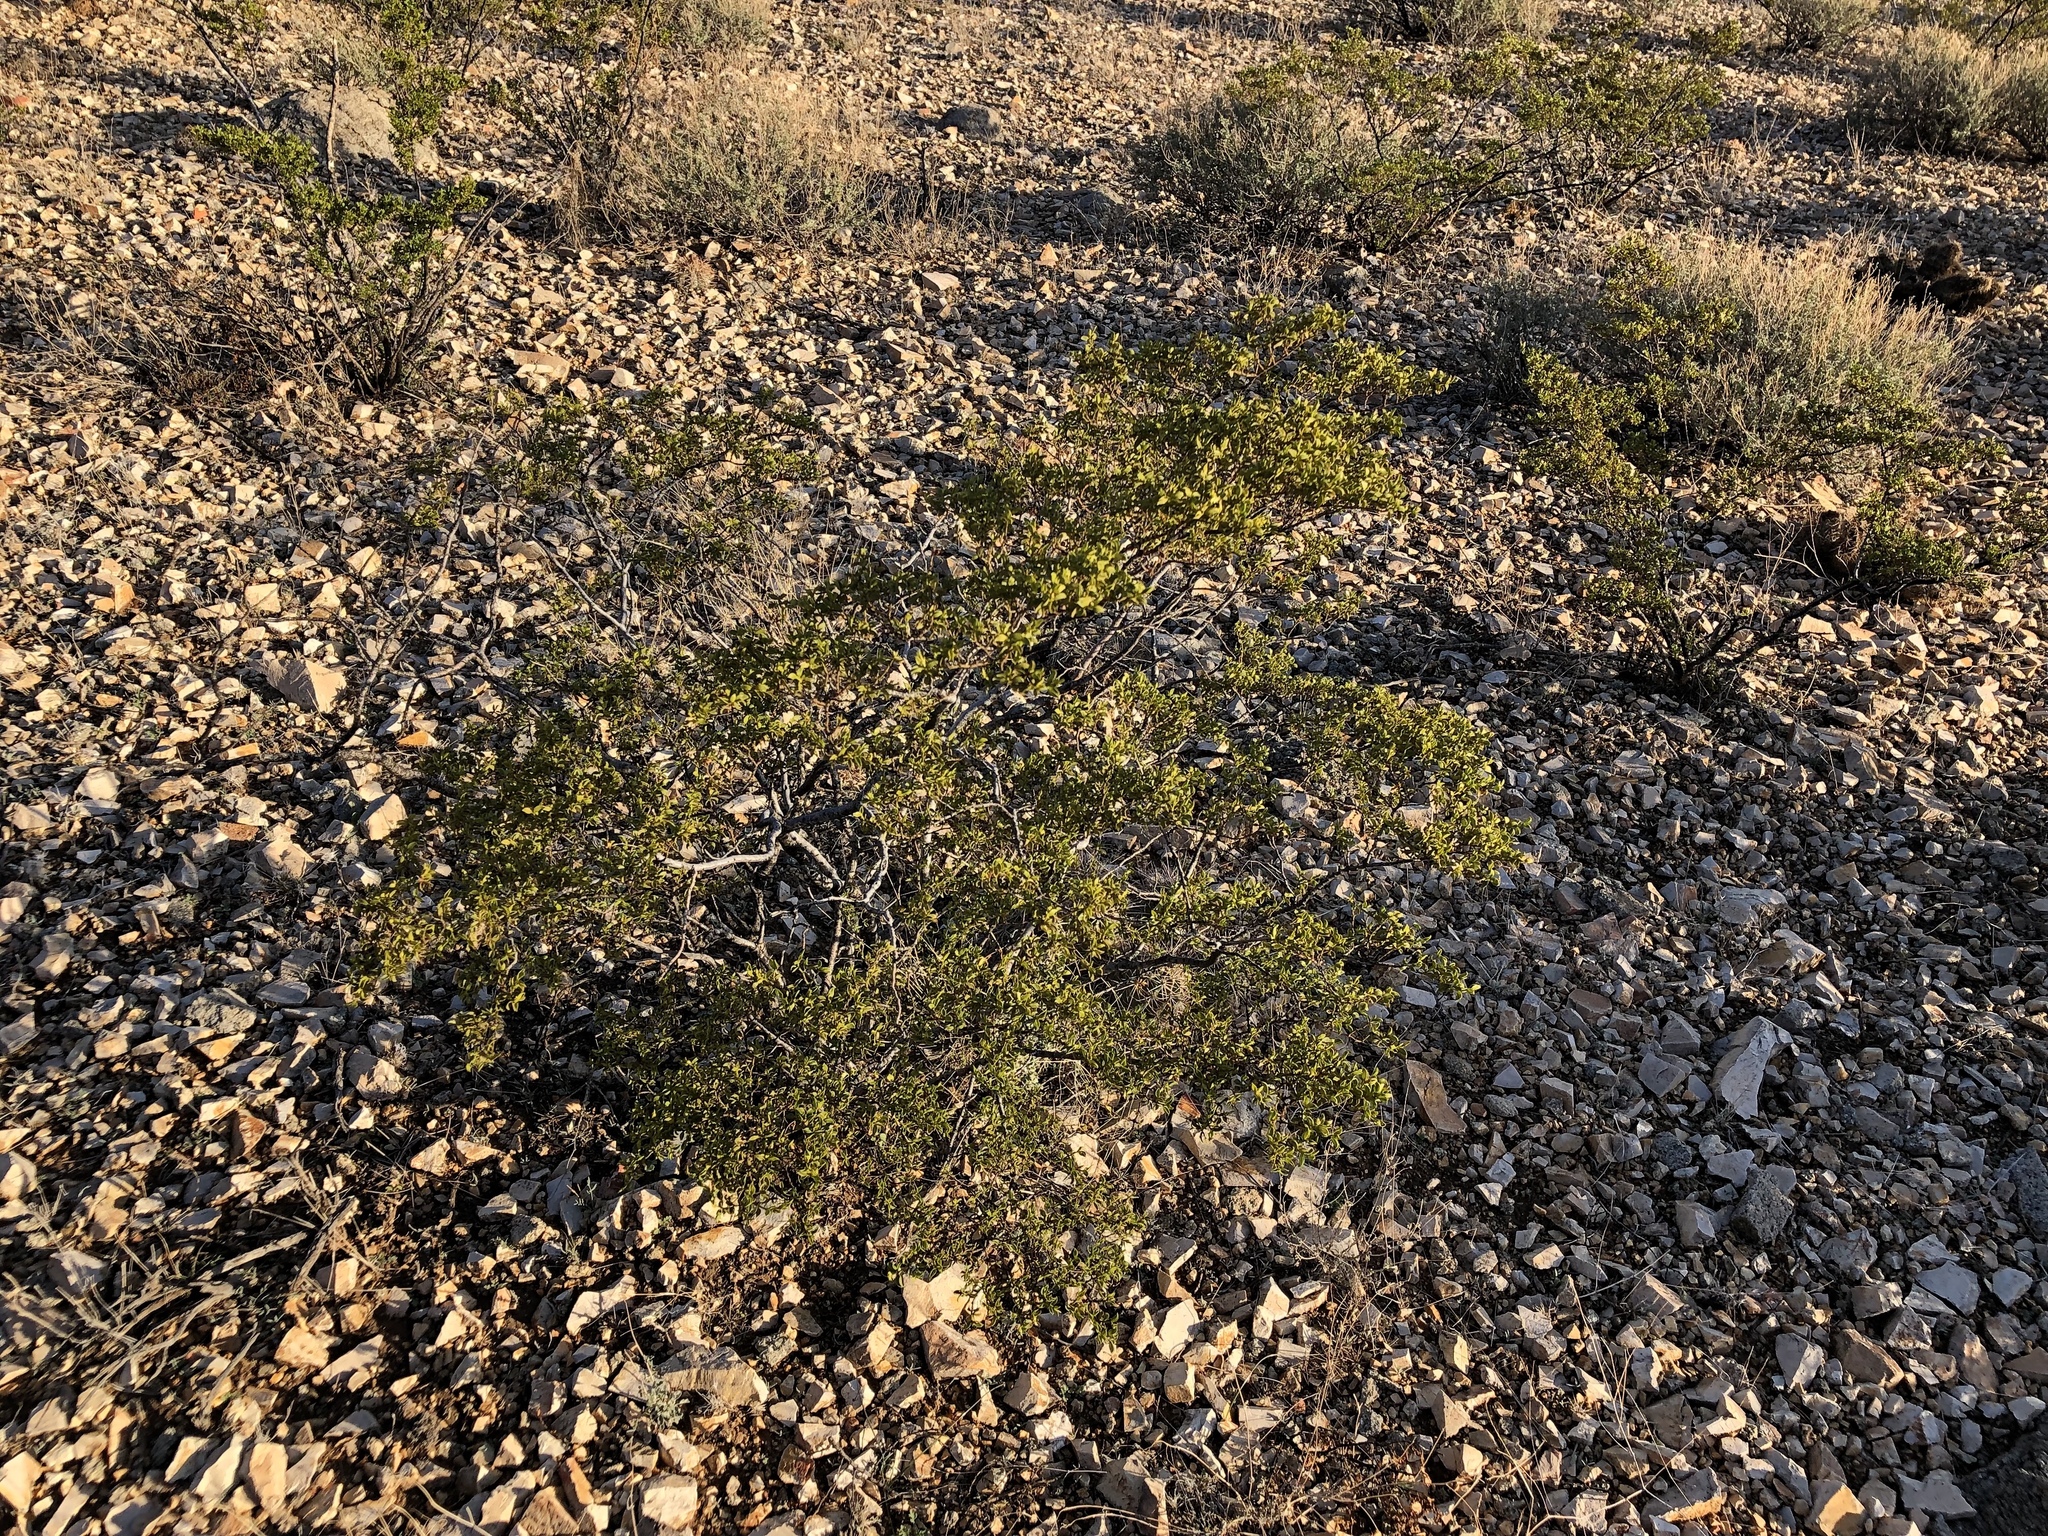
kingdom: Plantae
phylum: Tracheophyta
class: Magnoliopsida
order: Zygophyllales
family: Zygophyllaceae
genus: Larrea
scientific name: Larrea tridentata
